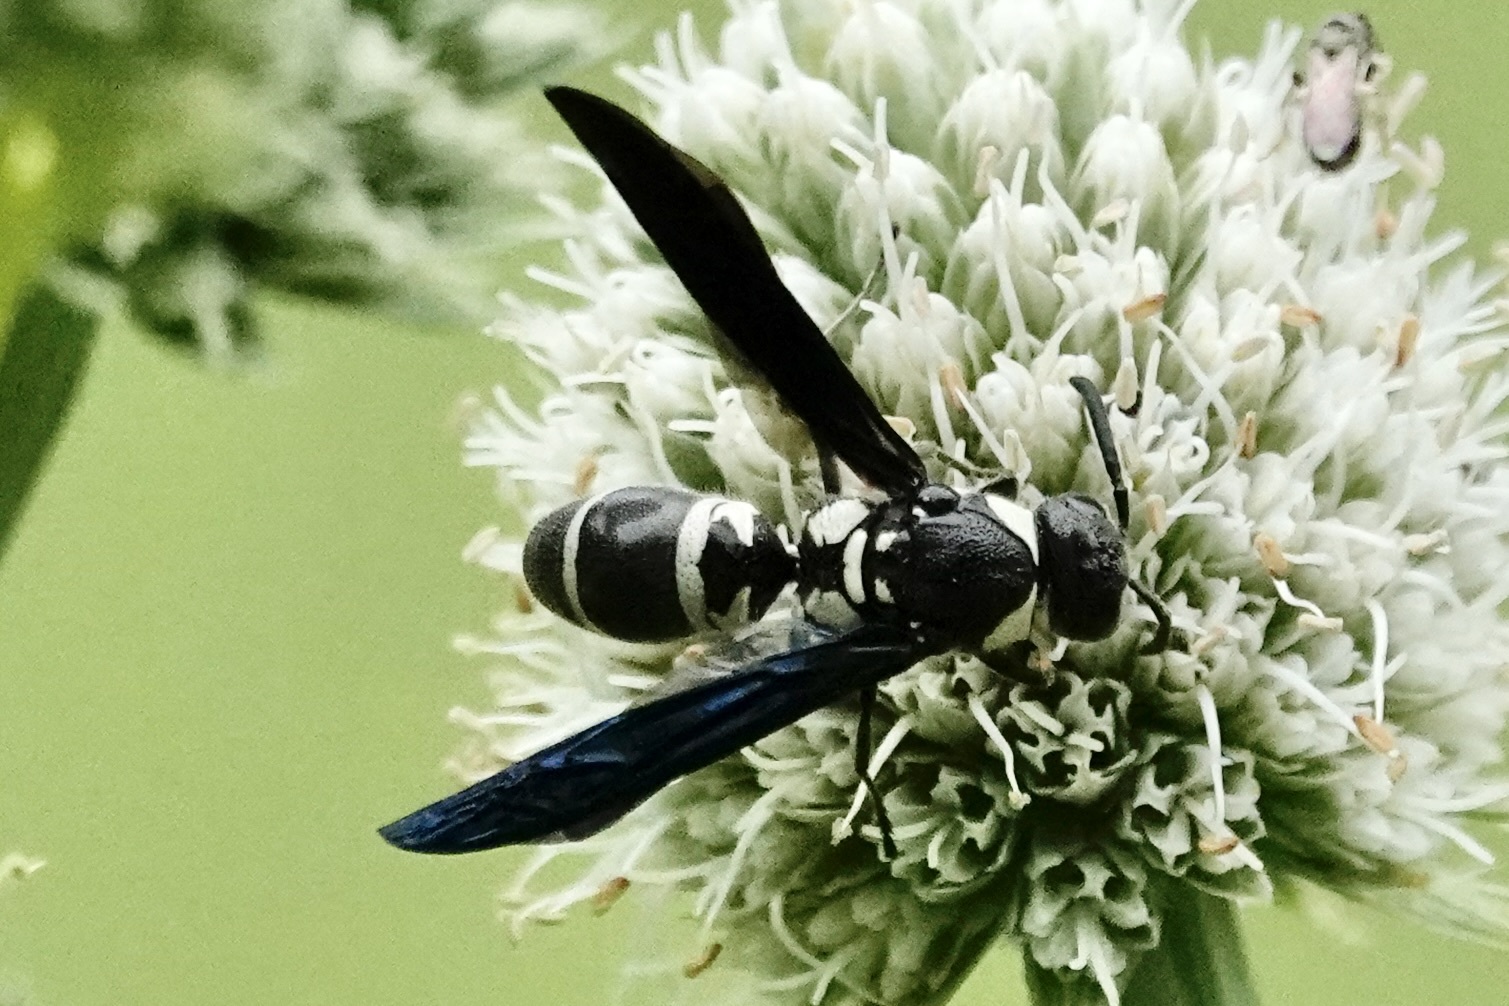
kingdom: Animalia
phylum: Arthropoda
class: Insecta
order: Hymenoptera
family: Eumenidae
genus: Pseudodynerus
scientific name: Pseudodynerus quadrisectus
